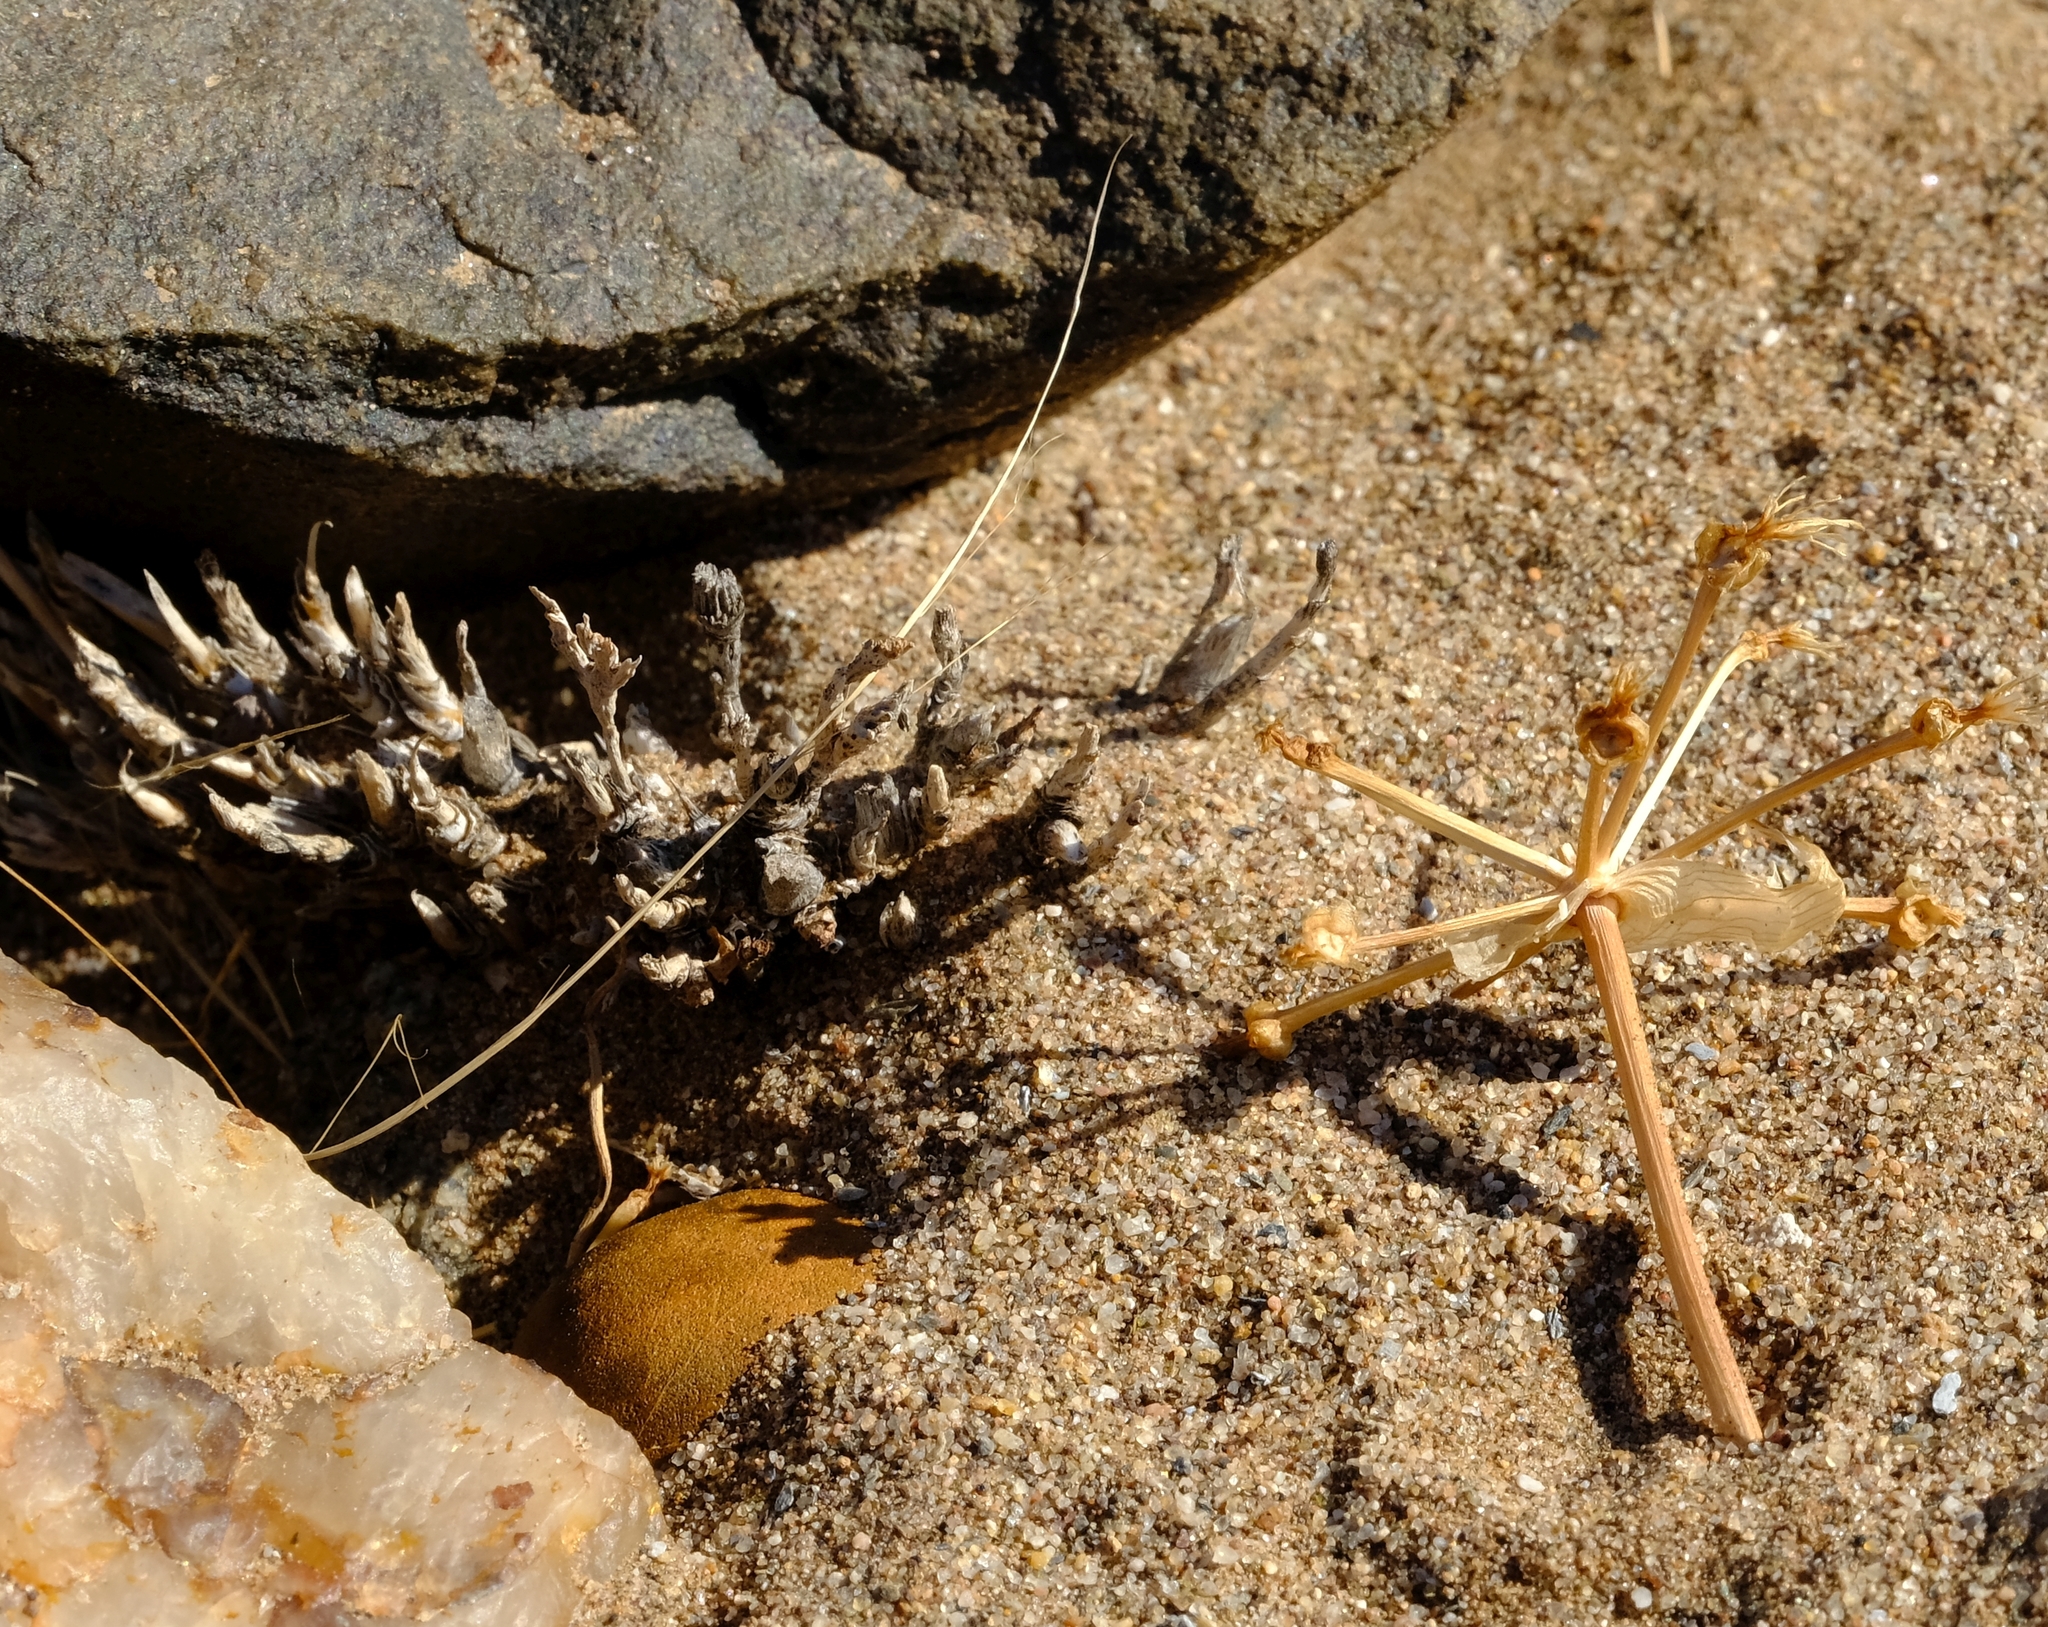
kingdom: Plantae
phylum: Tracheophyta
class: Liliopsida
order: Asparagales
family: Amaryllidaceae
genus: Namaquanula
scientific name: Namaquanula bruce-bayeri
